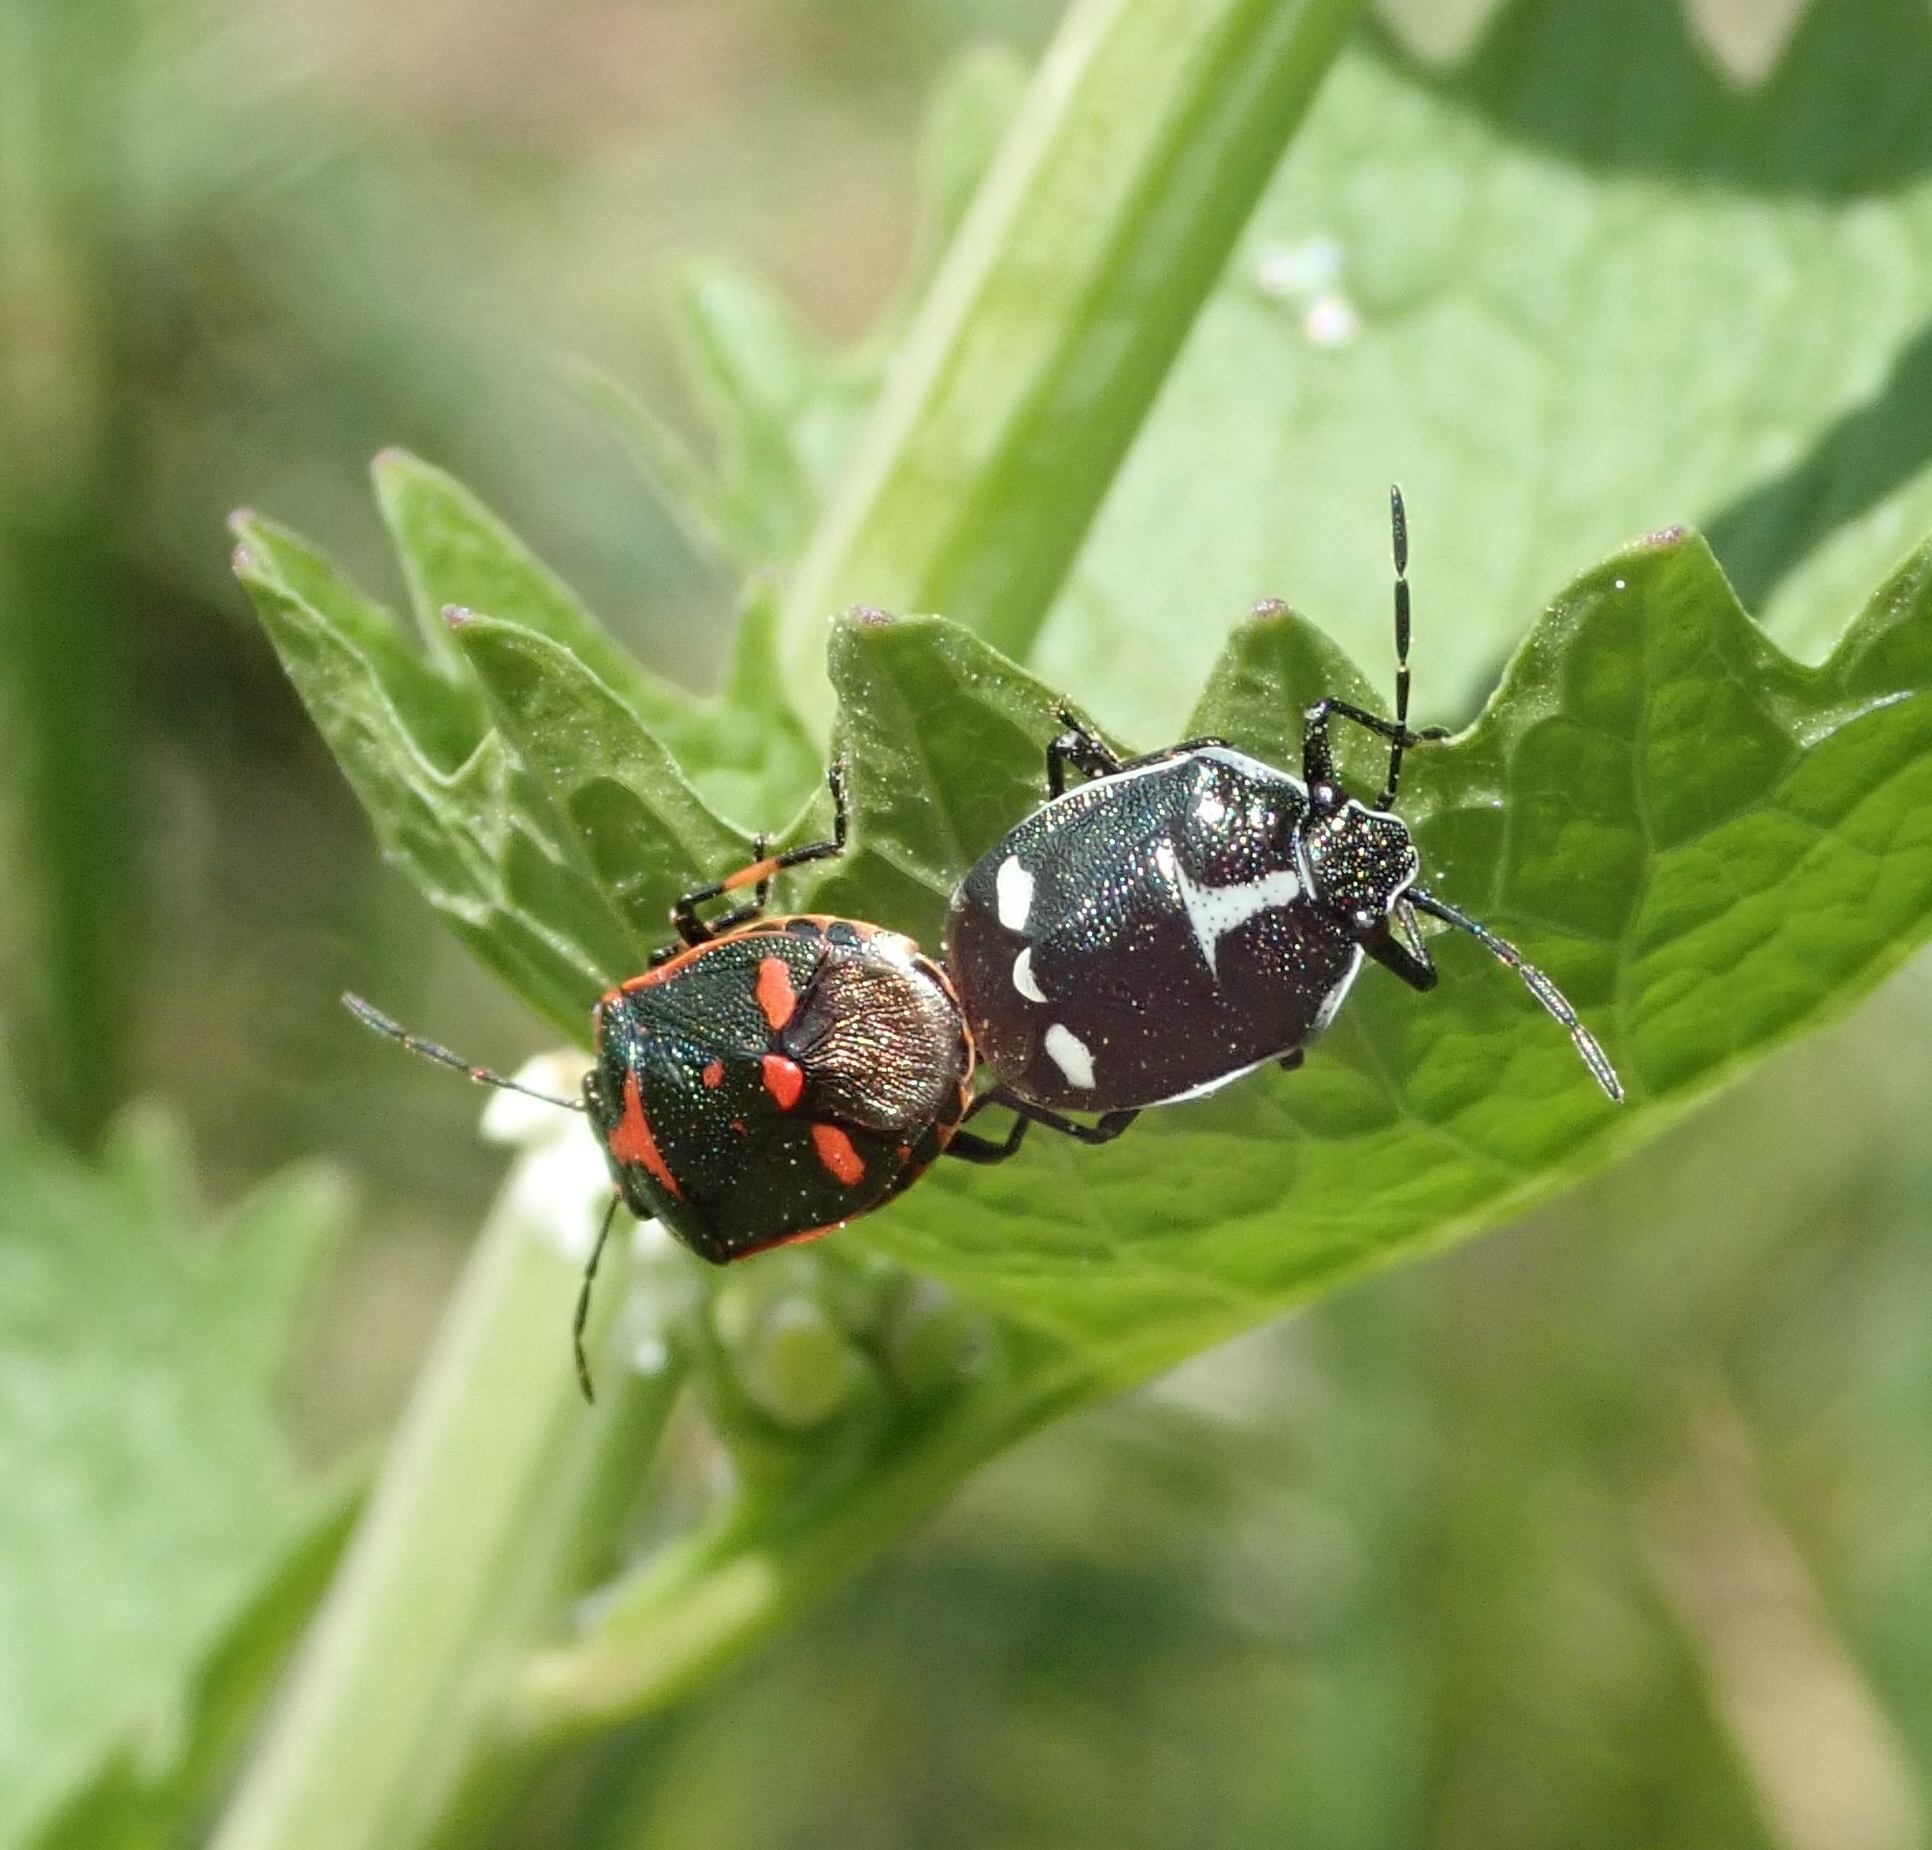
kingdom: Animalia
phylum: Arthropoda
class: Insecta
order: Hemiptera
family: Pentatomidae
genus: Eurydema
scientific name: Eurydema oleracea
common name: Cabbage bug
